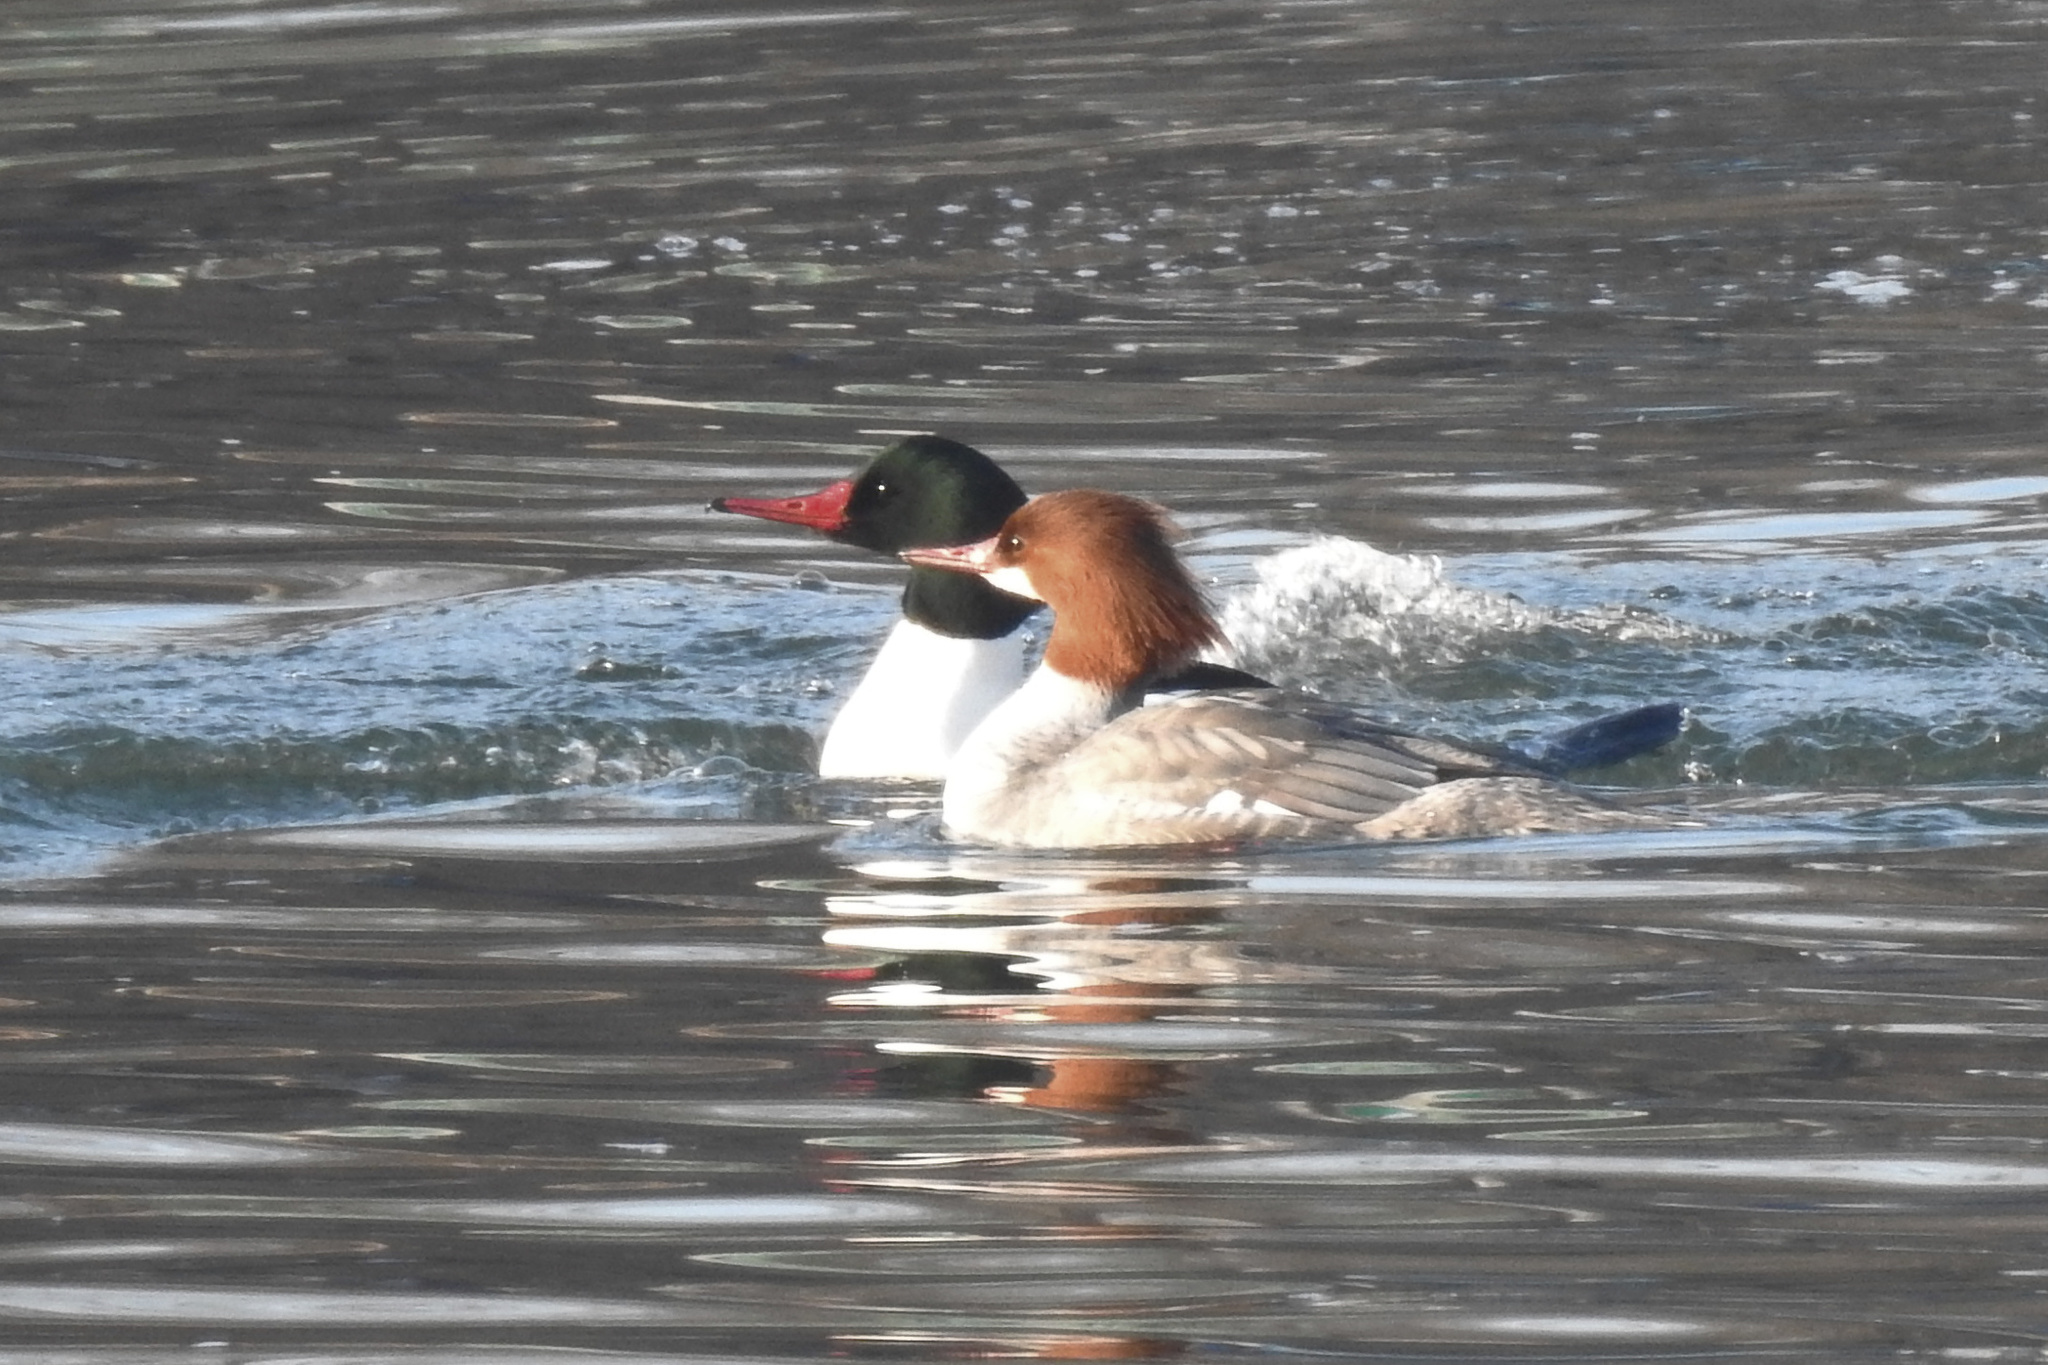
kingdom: Animalia
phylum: Chordata
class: Aves
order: Anseriformes
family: Anatidae
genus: Mergus
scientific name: Mergus merganser
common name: Common merganser
